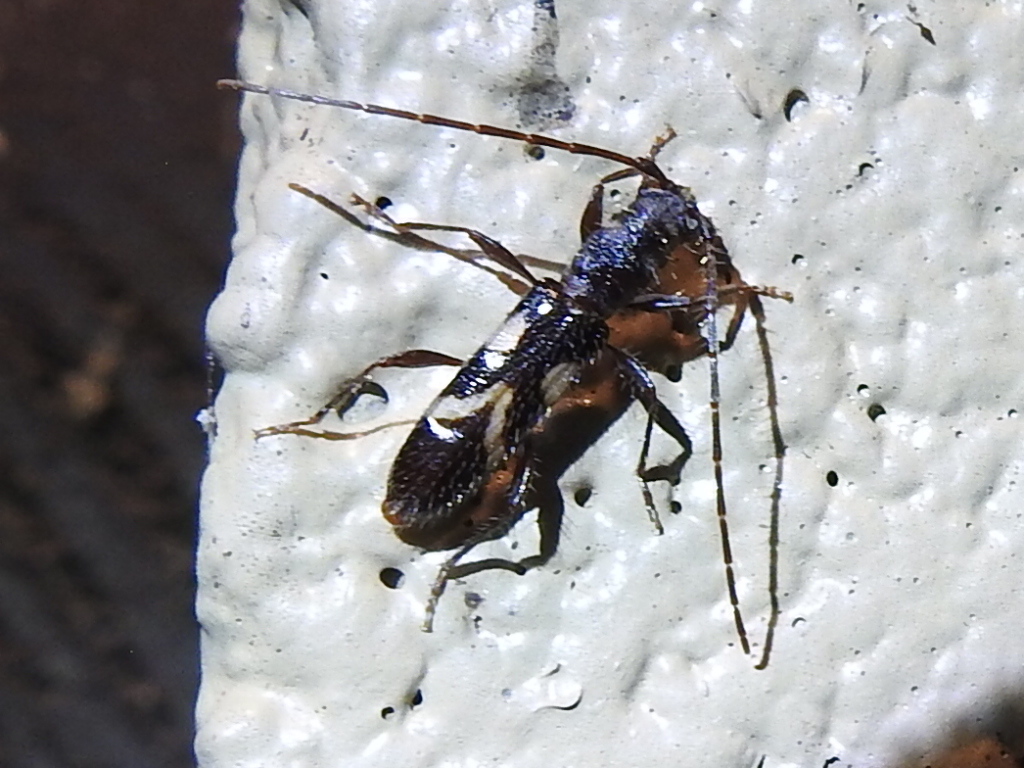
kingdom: Animalia
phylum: Arthropoda
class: Insecta
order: Coleoptera
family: Cerambycidae
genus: Heterachthes
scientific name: Heterachthes nobilis
